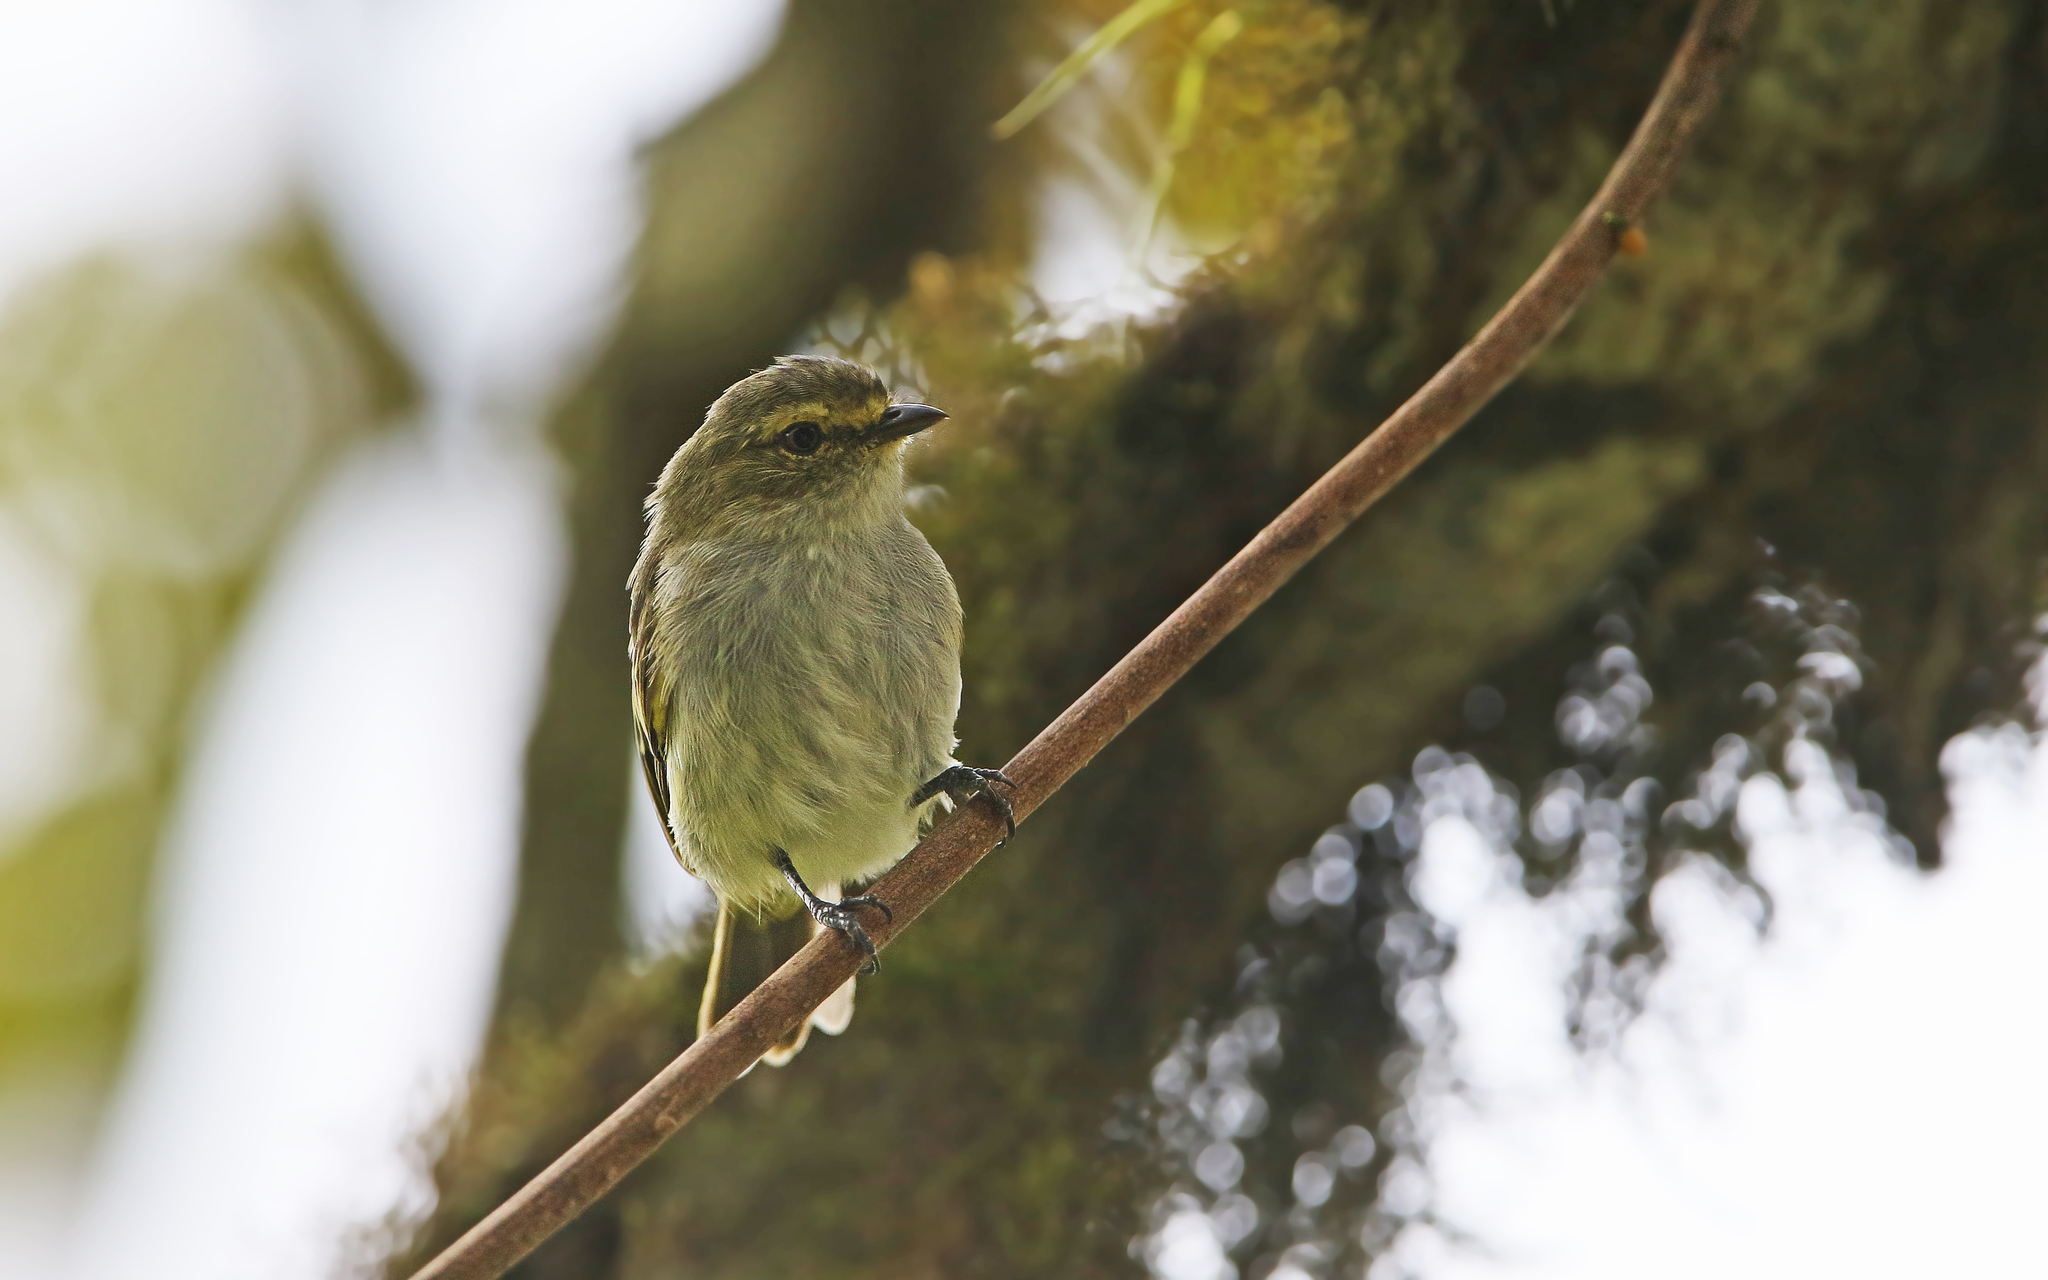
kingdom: Animalia
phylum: Chordata
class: Aves
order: Passeriformes
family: Tyrannidae
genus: Zimmerius
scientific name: Zimmerius chrysops
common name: Golden-faced tyrannulet
